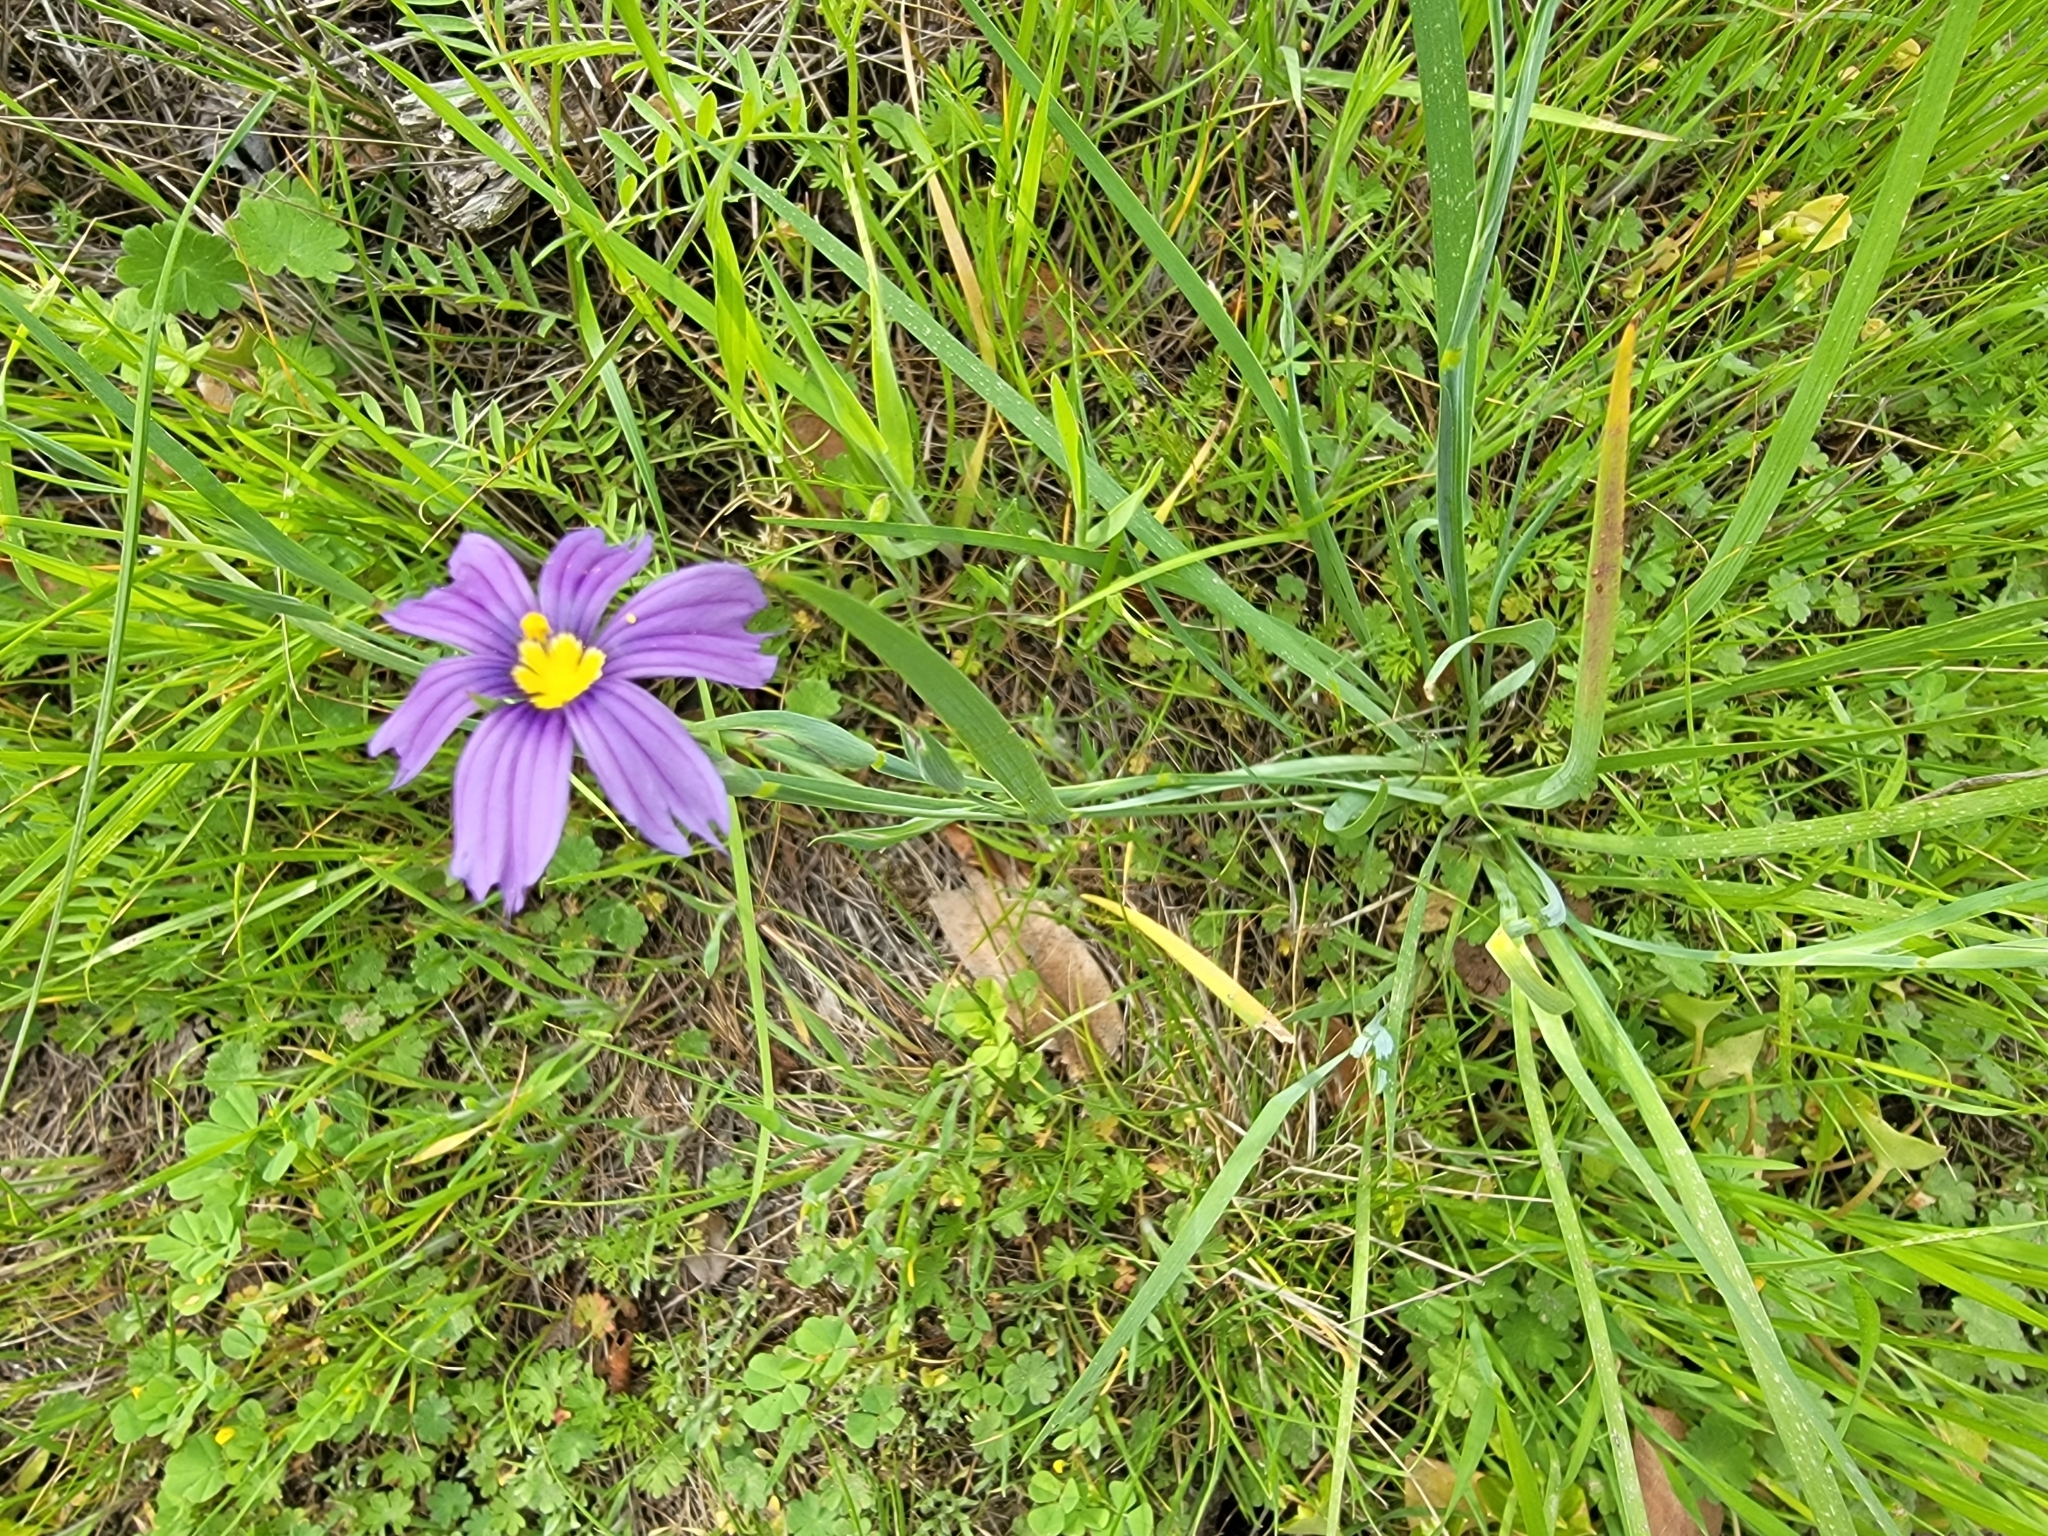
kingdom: Plantae
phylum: Tracheophyta
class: Liliopsida
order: Asparagales
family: Iridaceae
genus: Sisyrinchium
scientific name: Sisyrinchium bellum
